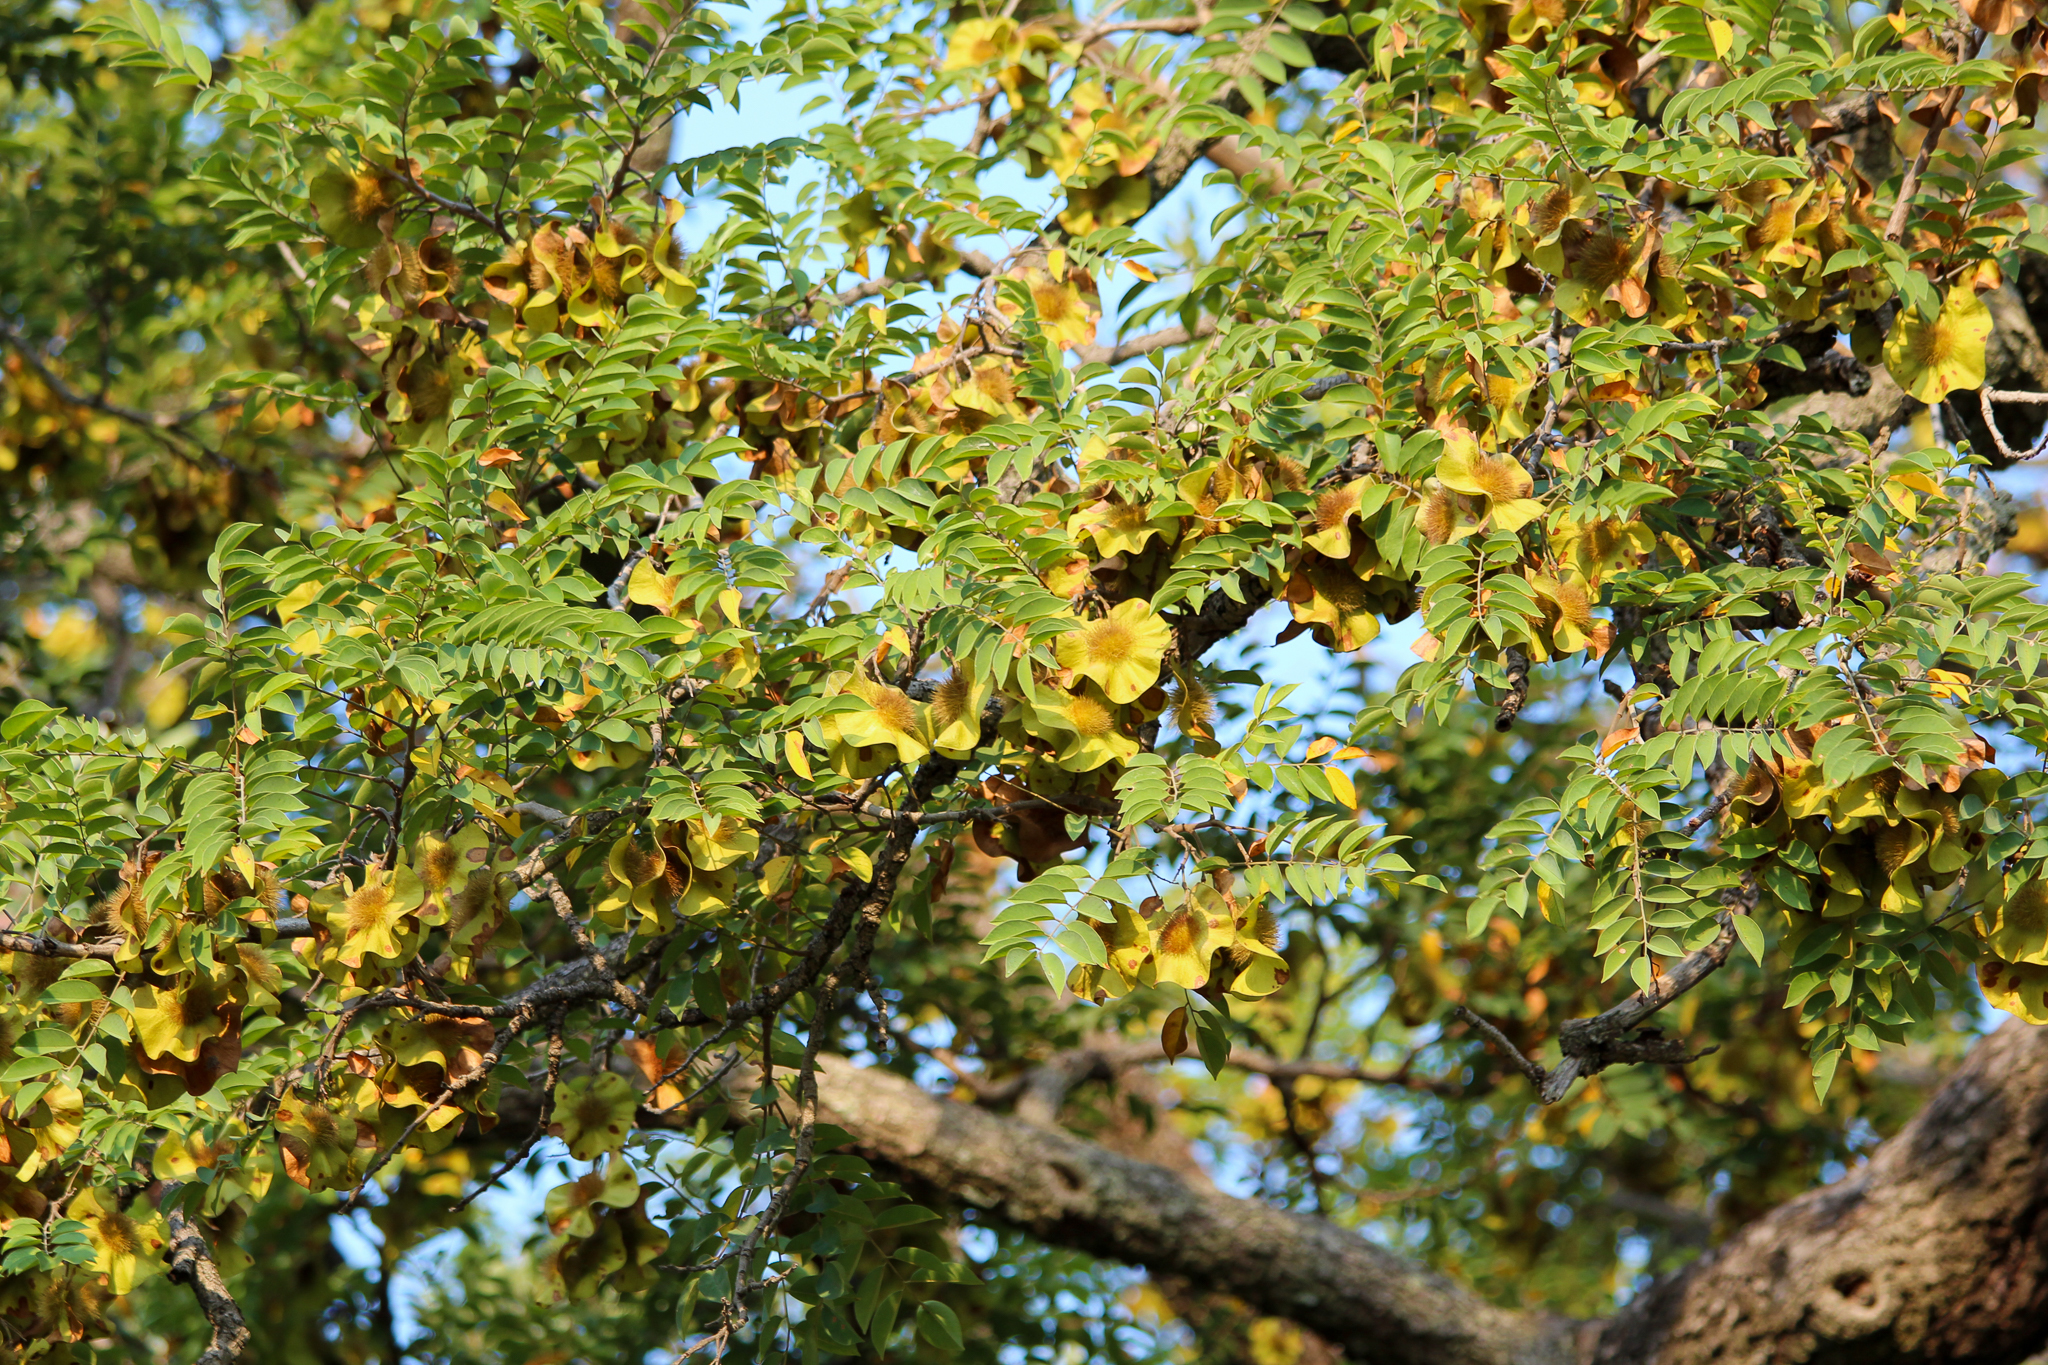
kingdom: Plantae
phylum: Tracheophyta
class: Magnoliopsida
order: Fabales
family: Fabaceae
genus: Pterocarpus
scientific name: Pterocarpus angolensis
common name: Bloodwood tree
